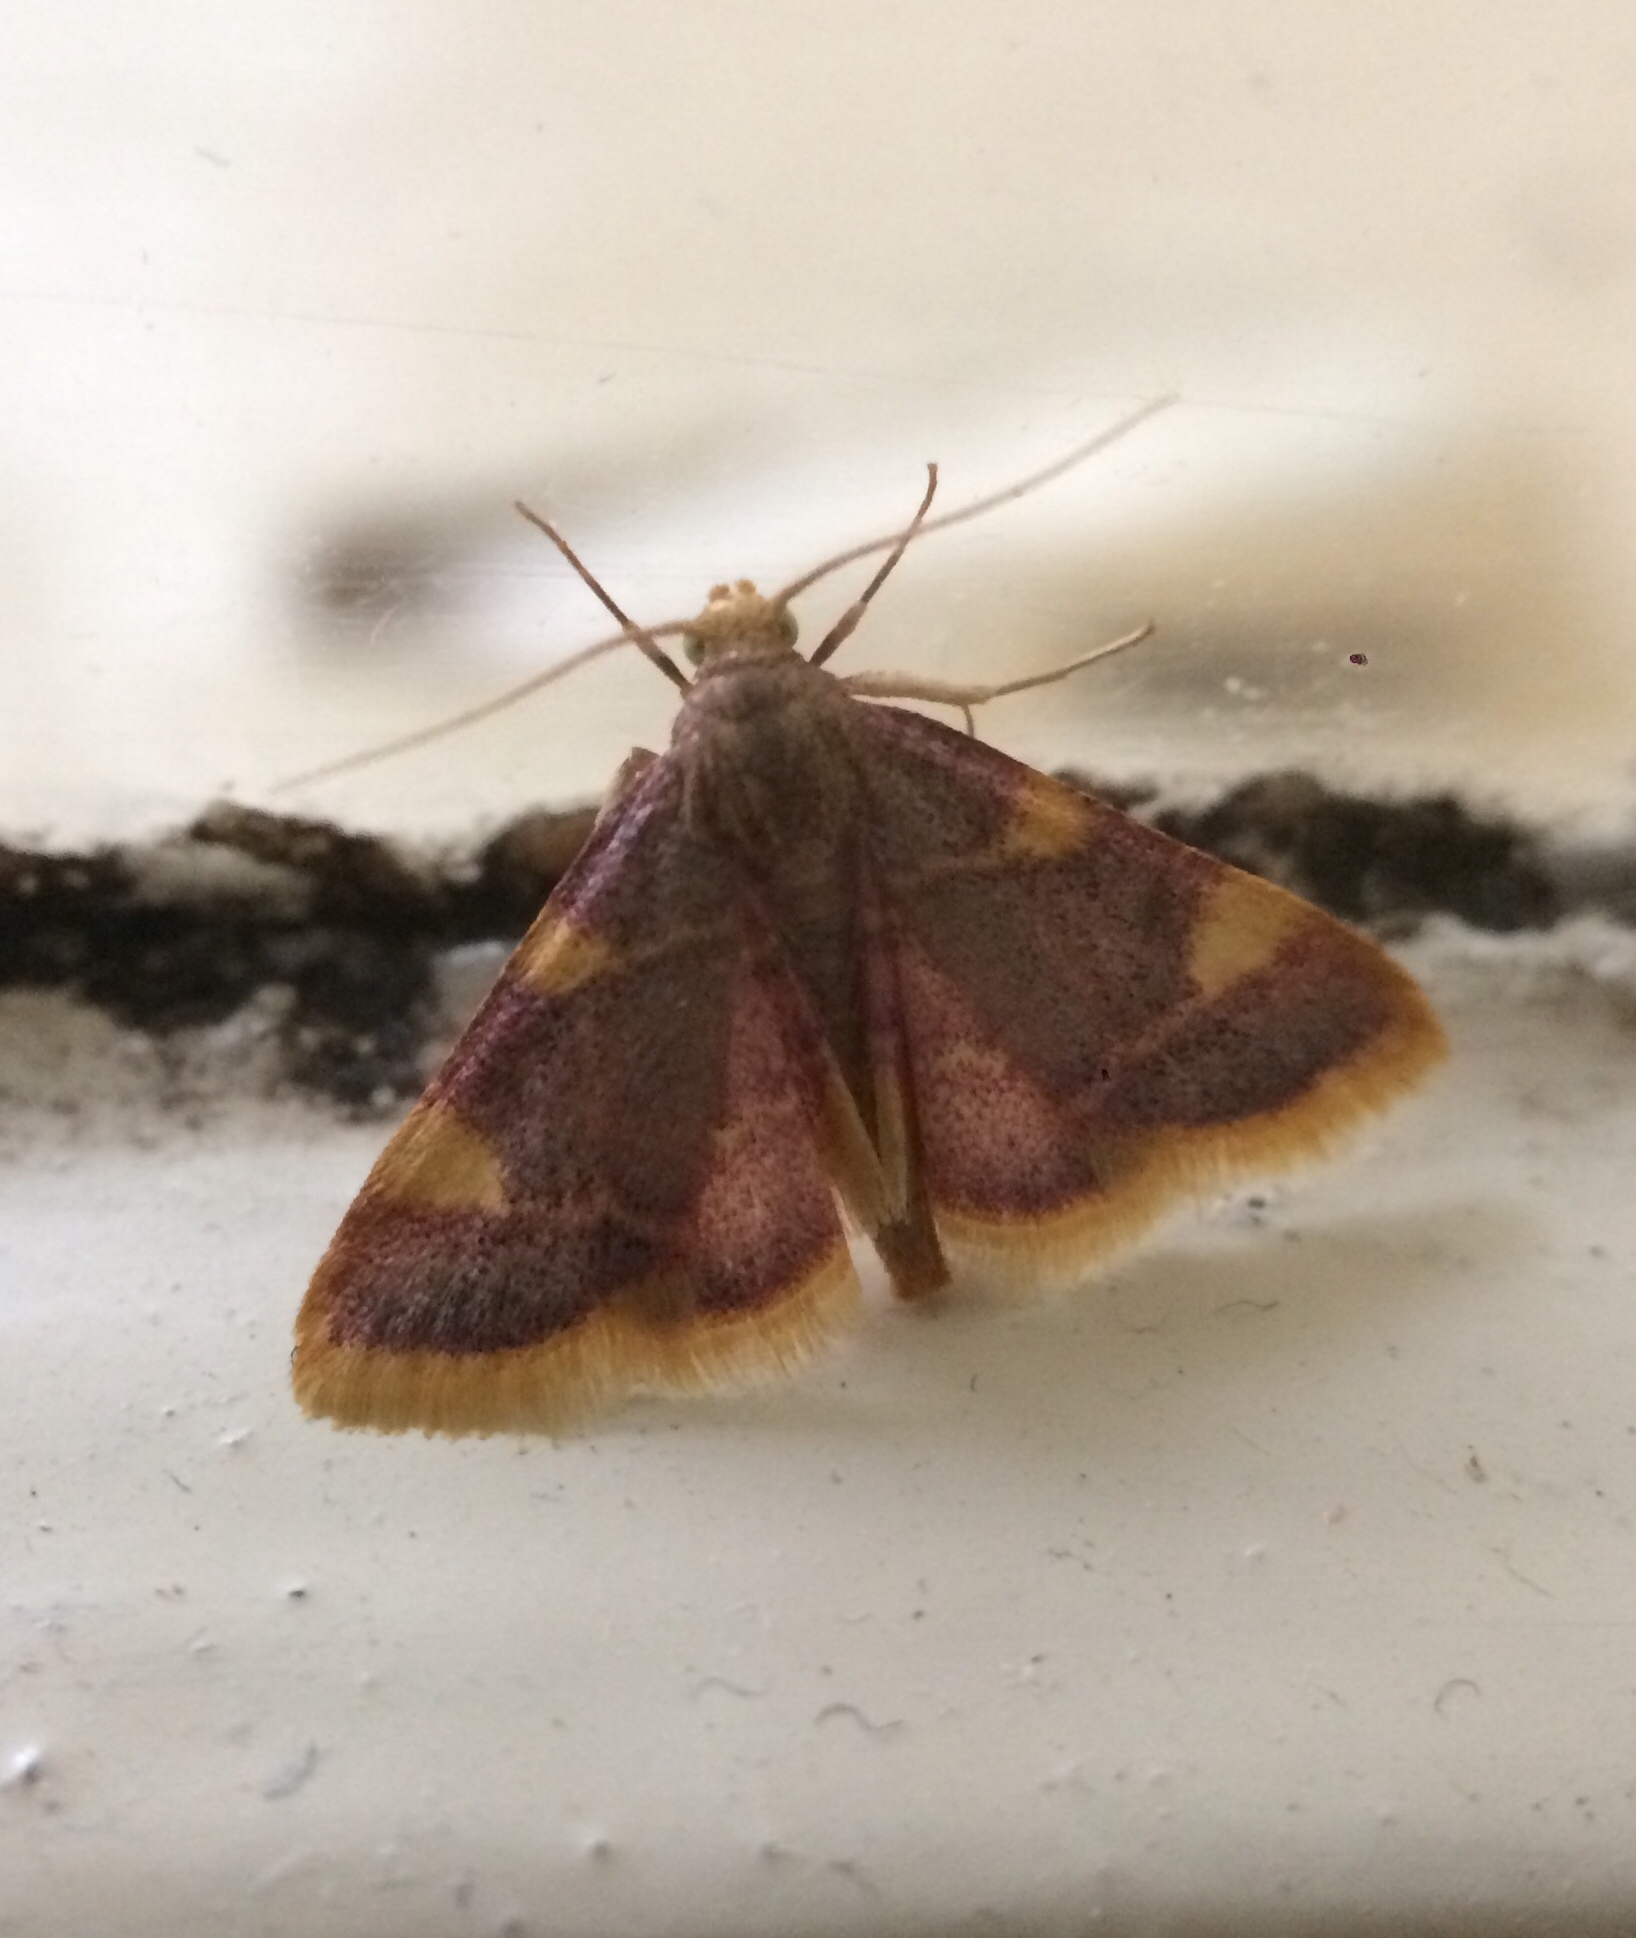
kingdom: Animalia
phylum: Arthropoda
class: Insecta
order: Lepidoptera
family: Pyralidae
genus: Hypsopygia
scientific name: Hypsopygia costalis
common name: Gold triangle
